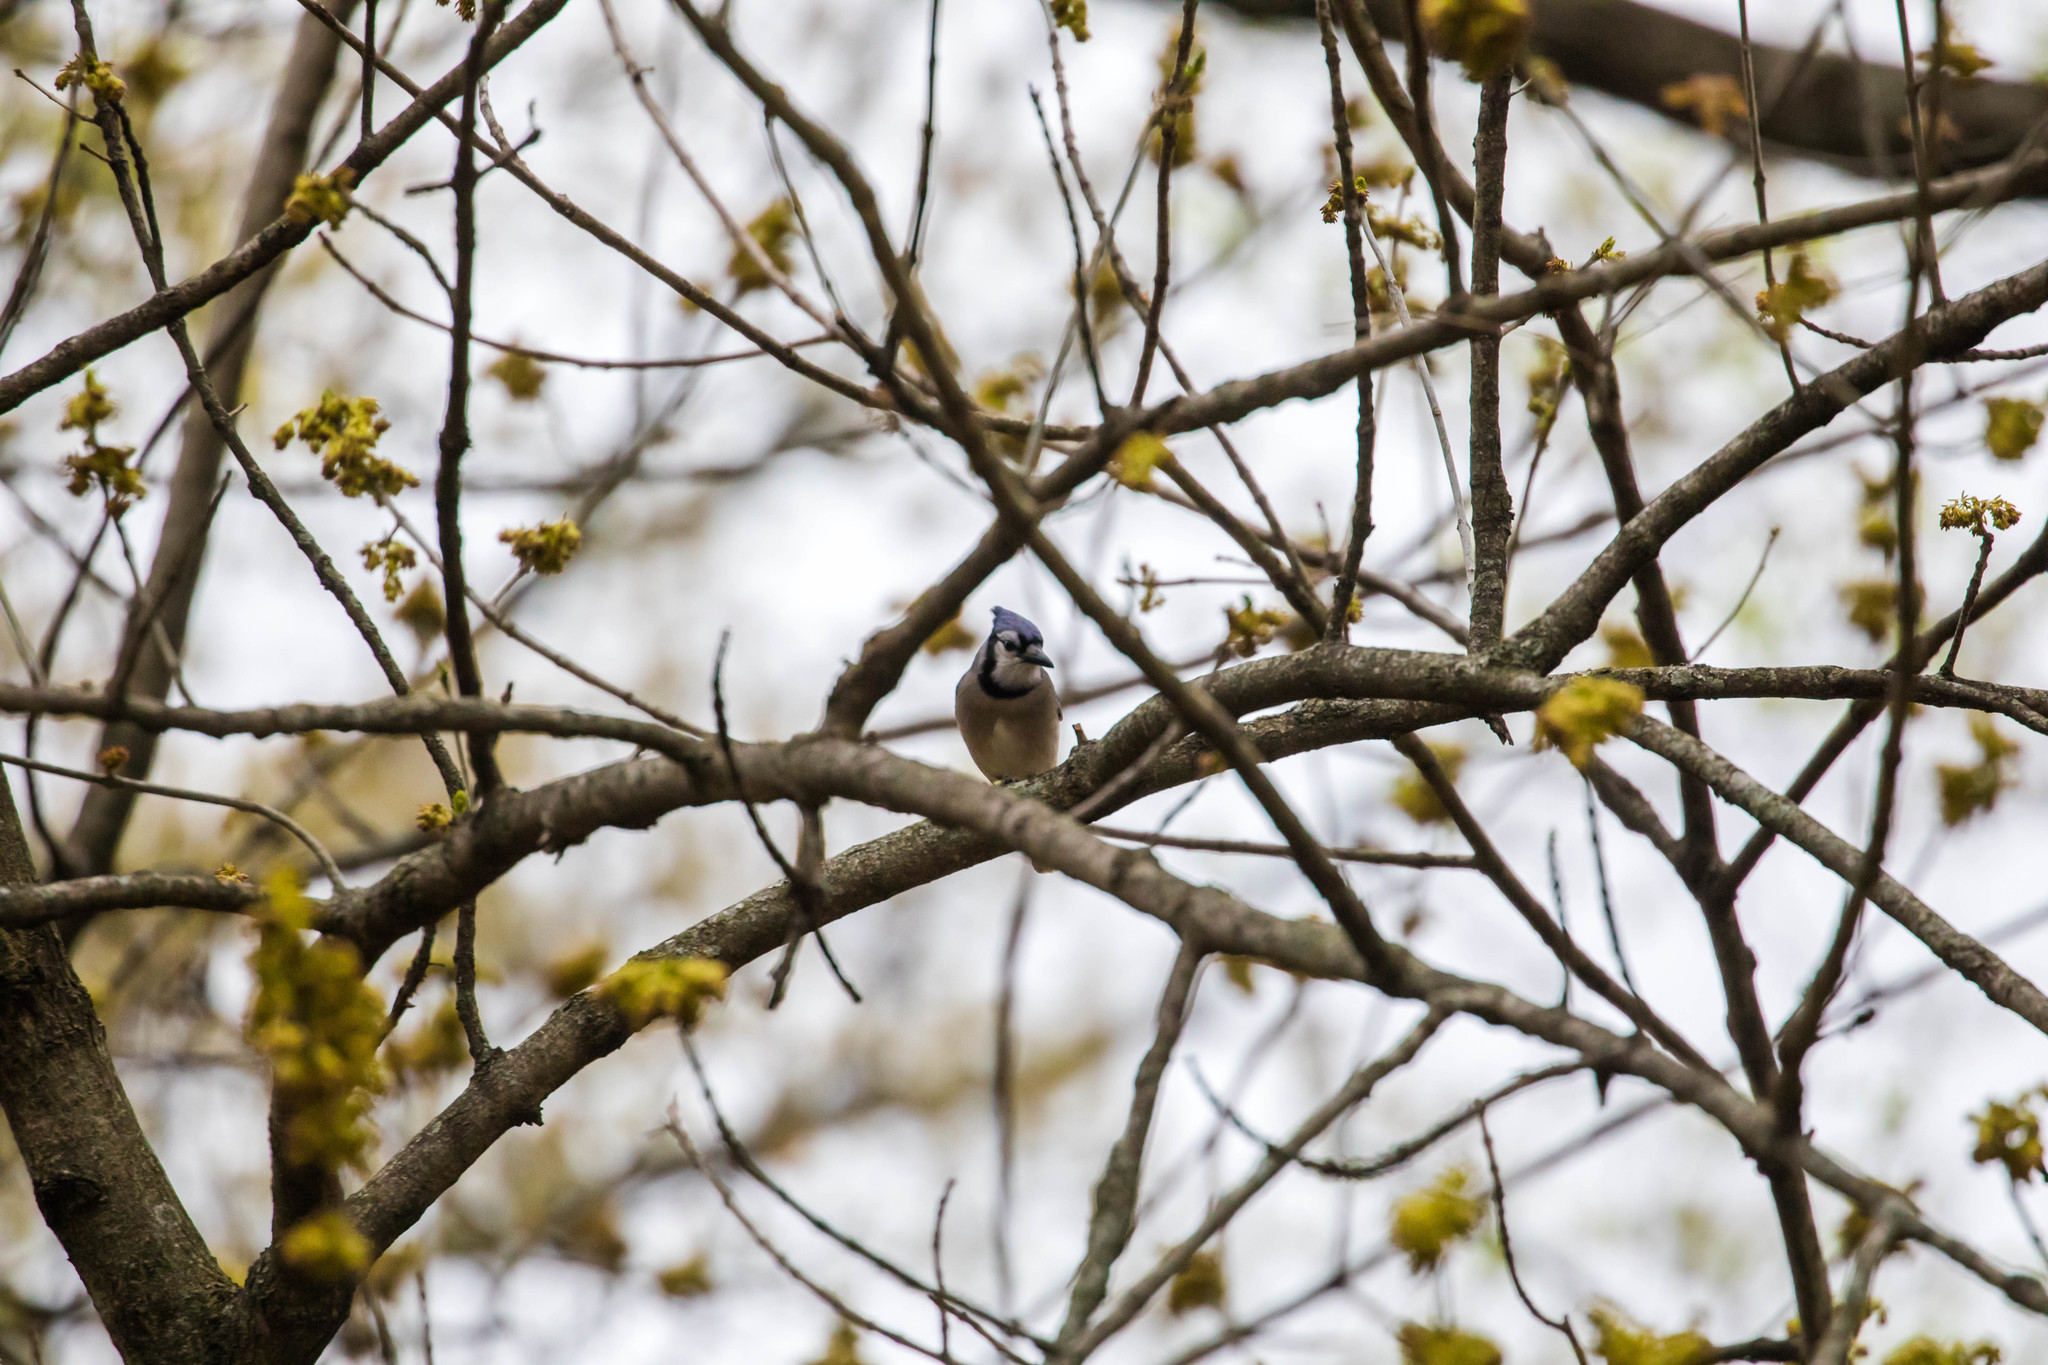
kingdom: Animalia
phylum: Chordata
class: Aves
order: Passeriformes
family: Corvidae
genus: Cyanocitta
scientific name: Cyanocitta cristata
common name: Blue jay
